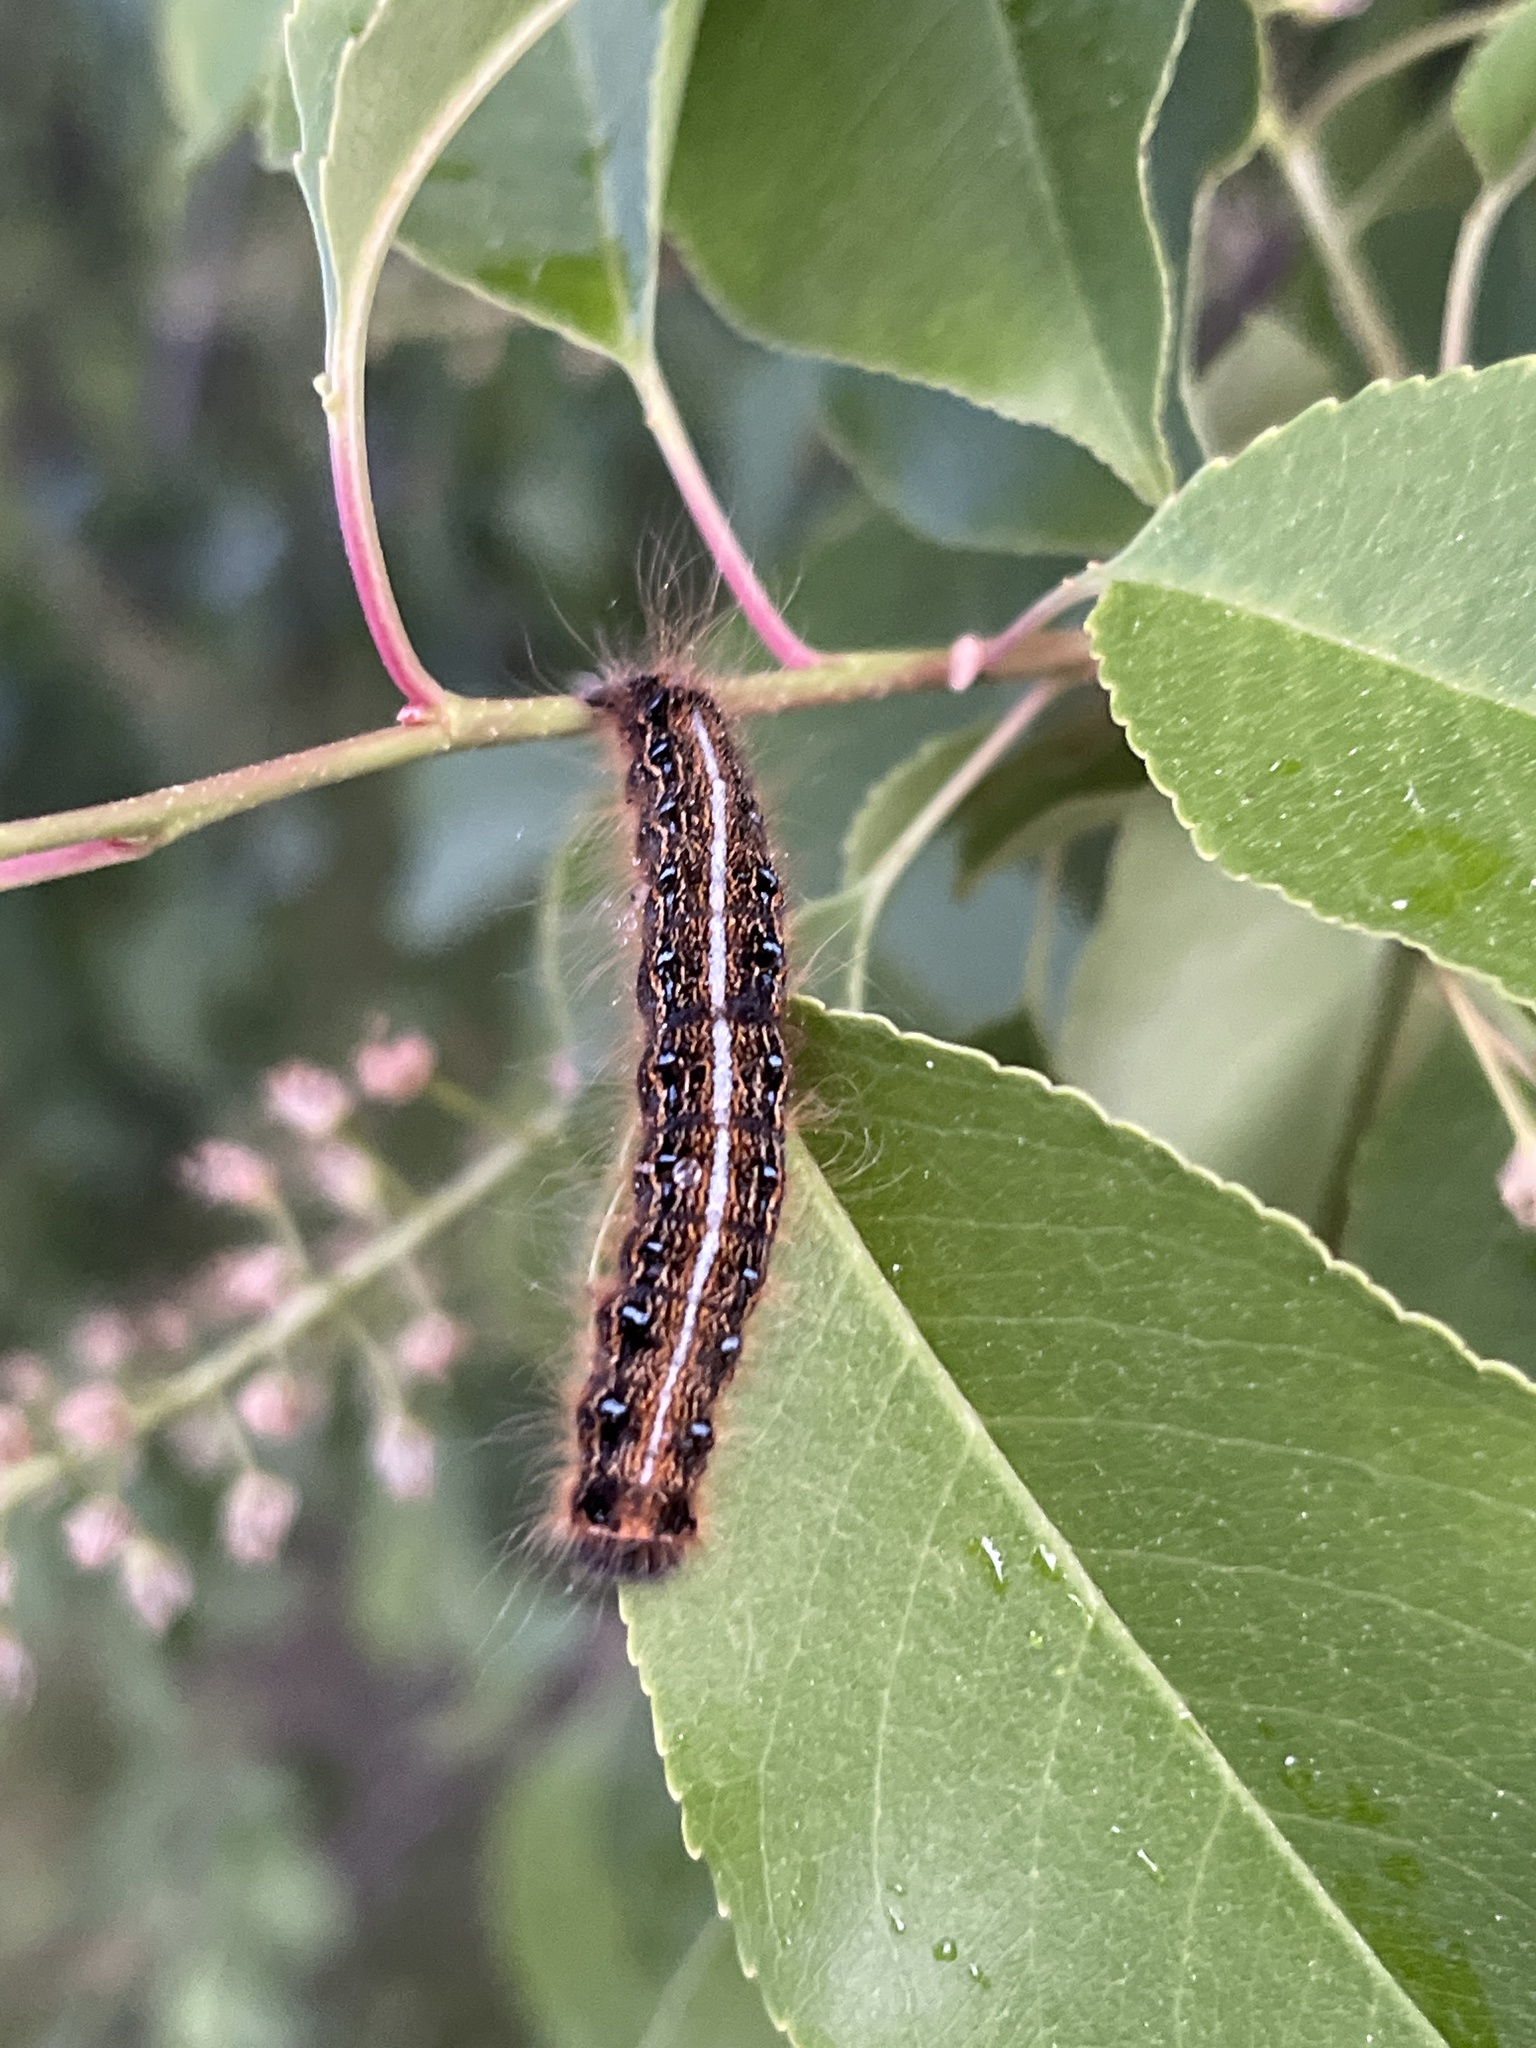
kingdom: Animalia
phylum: Arthropoda
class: Insecta
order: Lepidoptera
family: Lasiocampidae
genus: Malacosoma
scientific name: Malacosoma americana
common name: Eastern tent caterpillar moth
